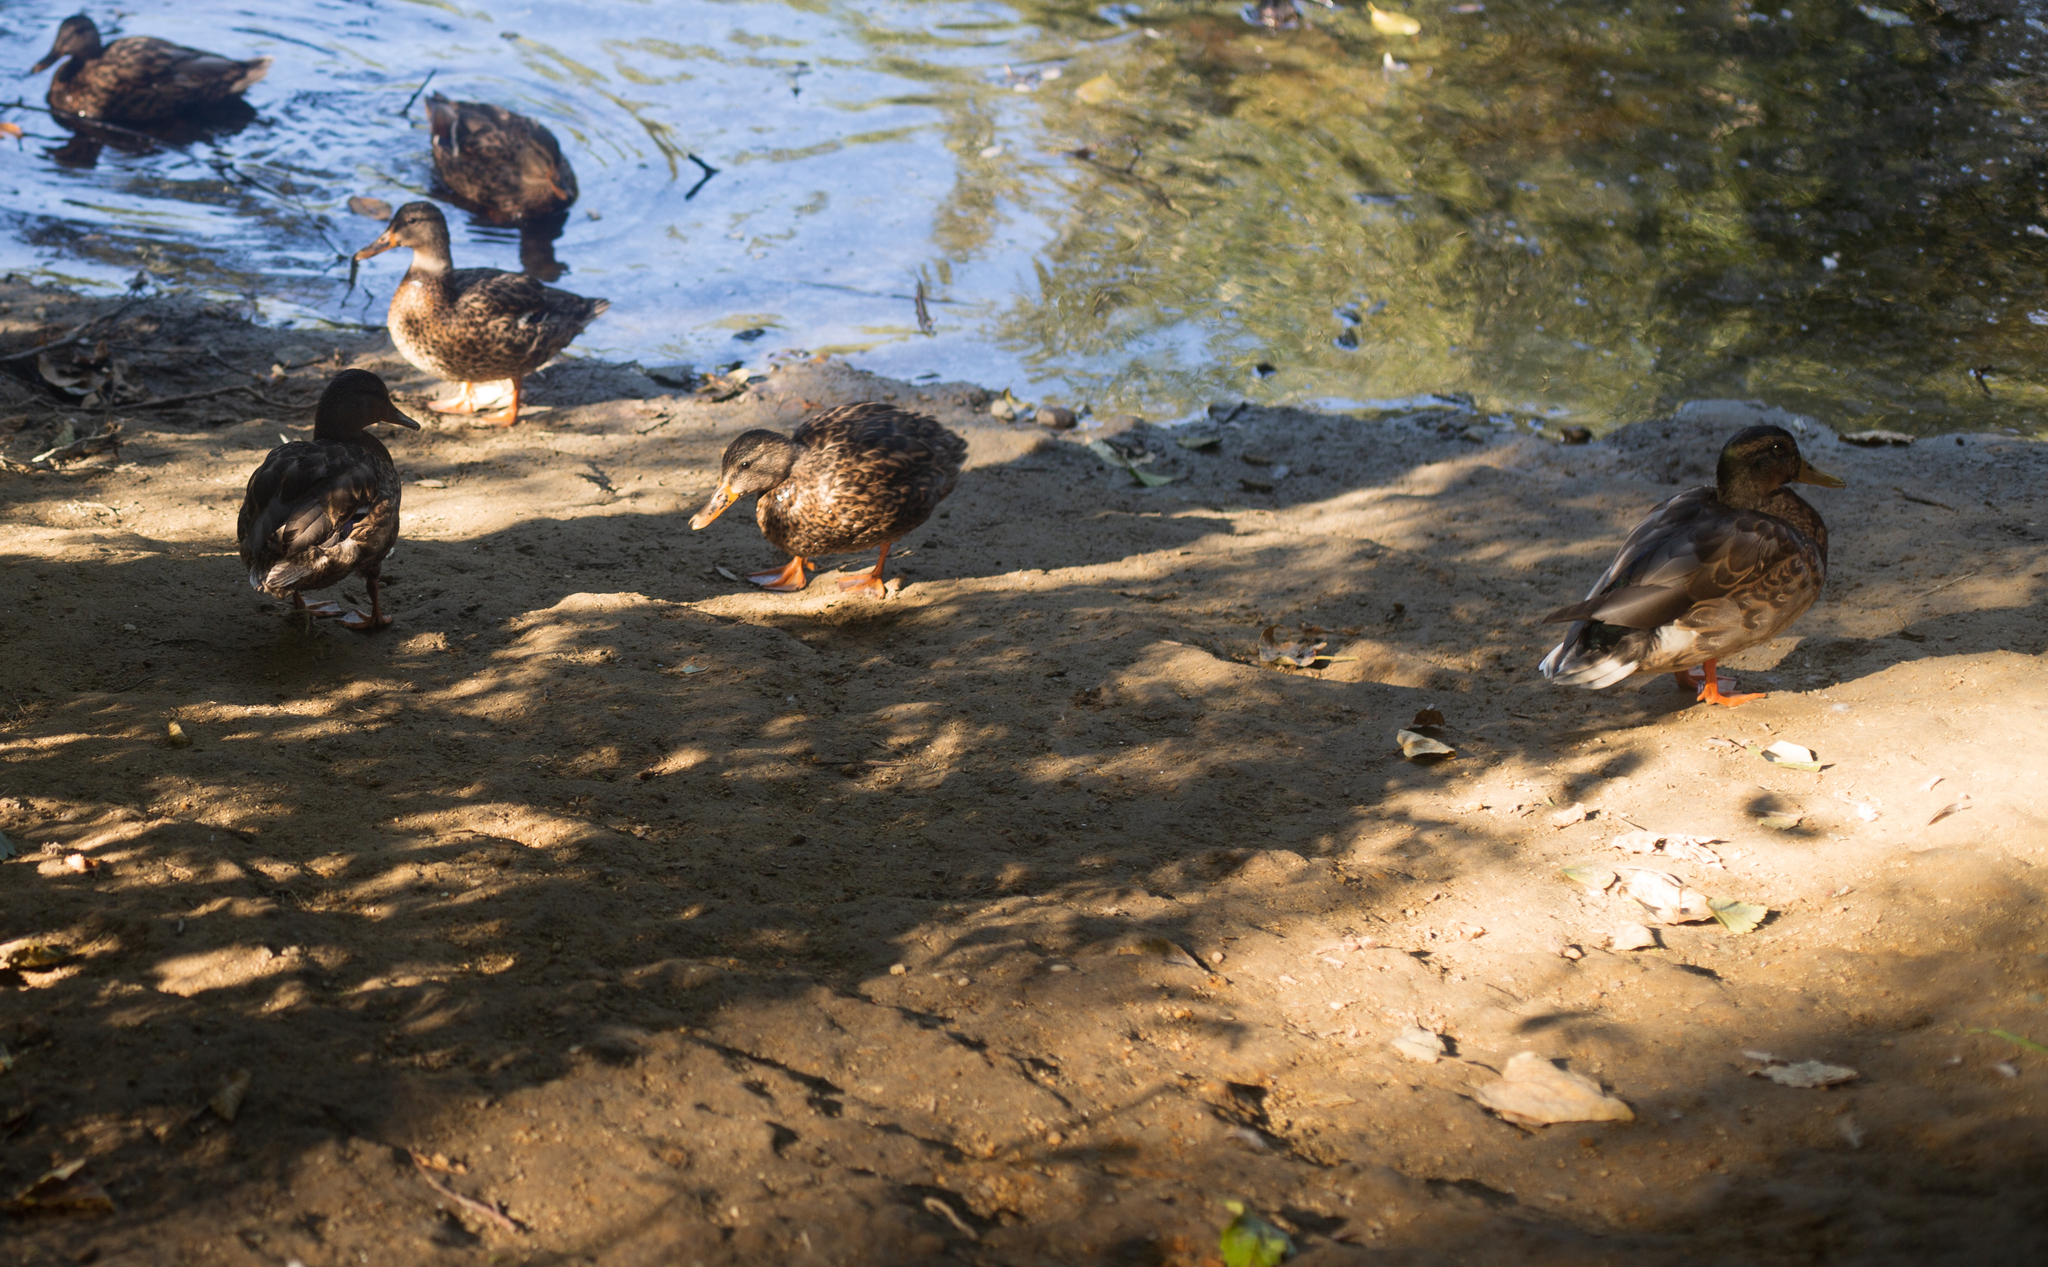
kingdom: Animalia
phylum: Chordata
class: Aves
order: Anseriformes
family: Anatidae
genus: Anas
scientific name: Anas platyrhynchos
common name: Mallard
